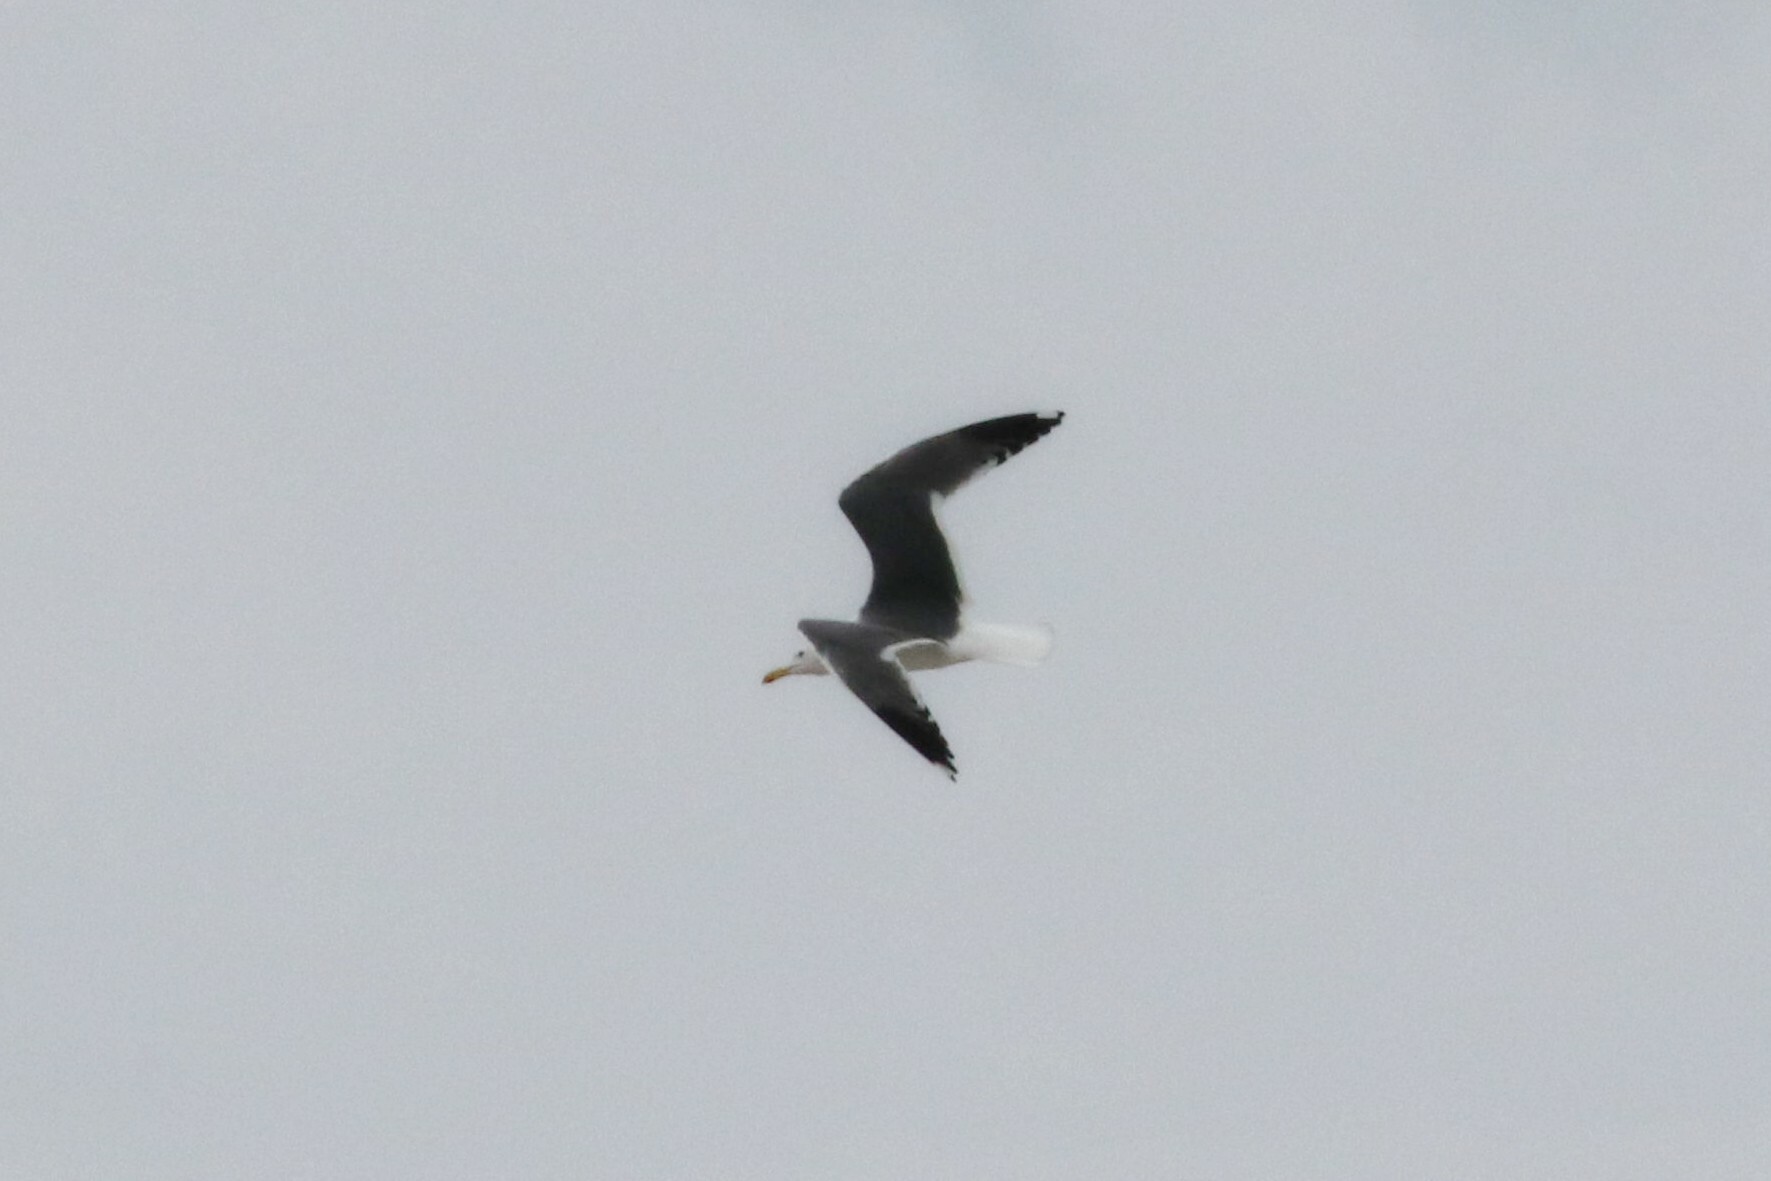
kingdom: Animalia
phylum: Chordata
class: Aves
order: Charadriiformes
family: Laridae
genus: Larus
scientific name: Larus fuscus
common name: Lesser black-backed gull
